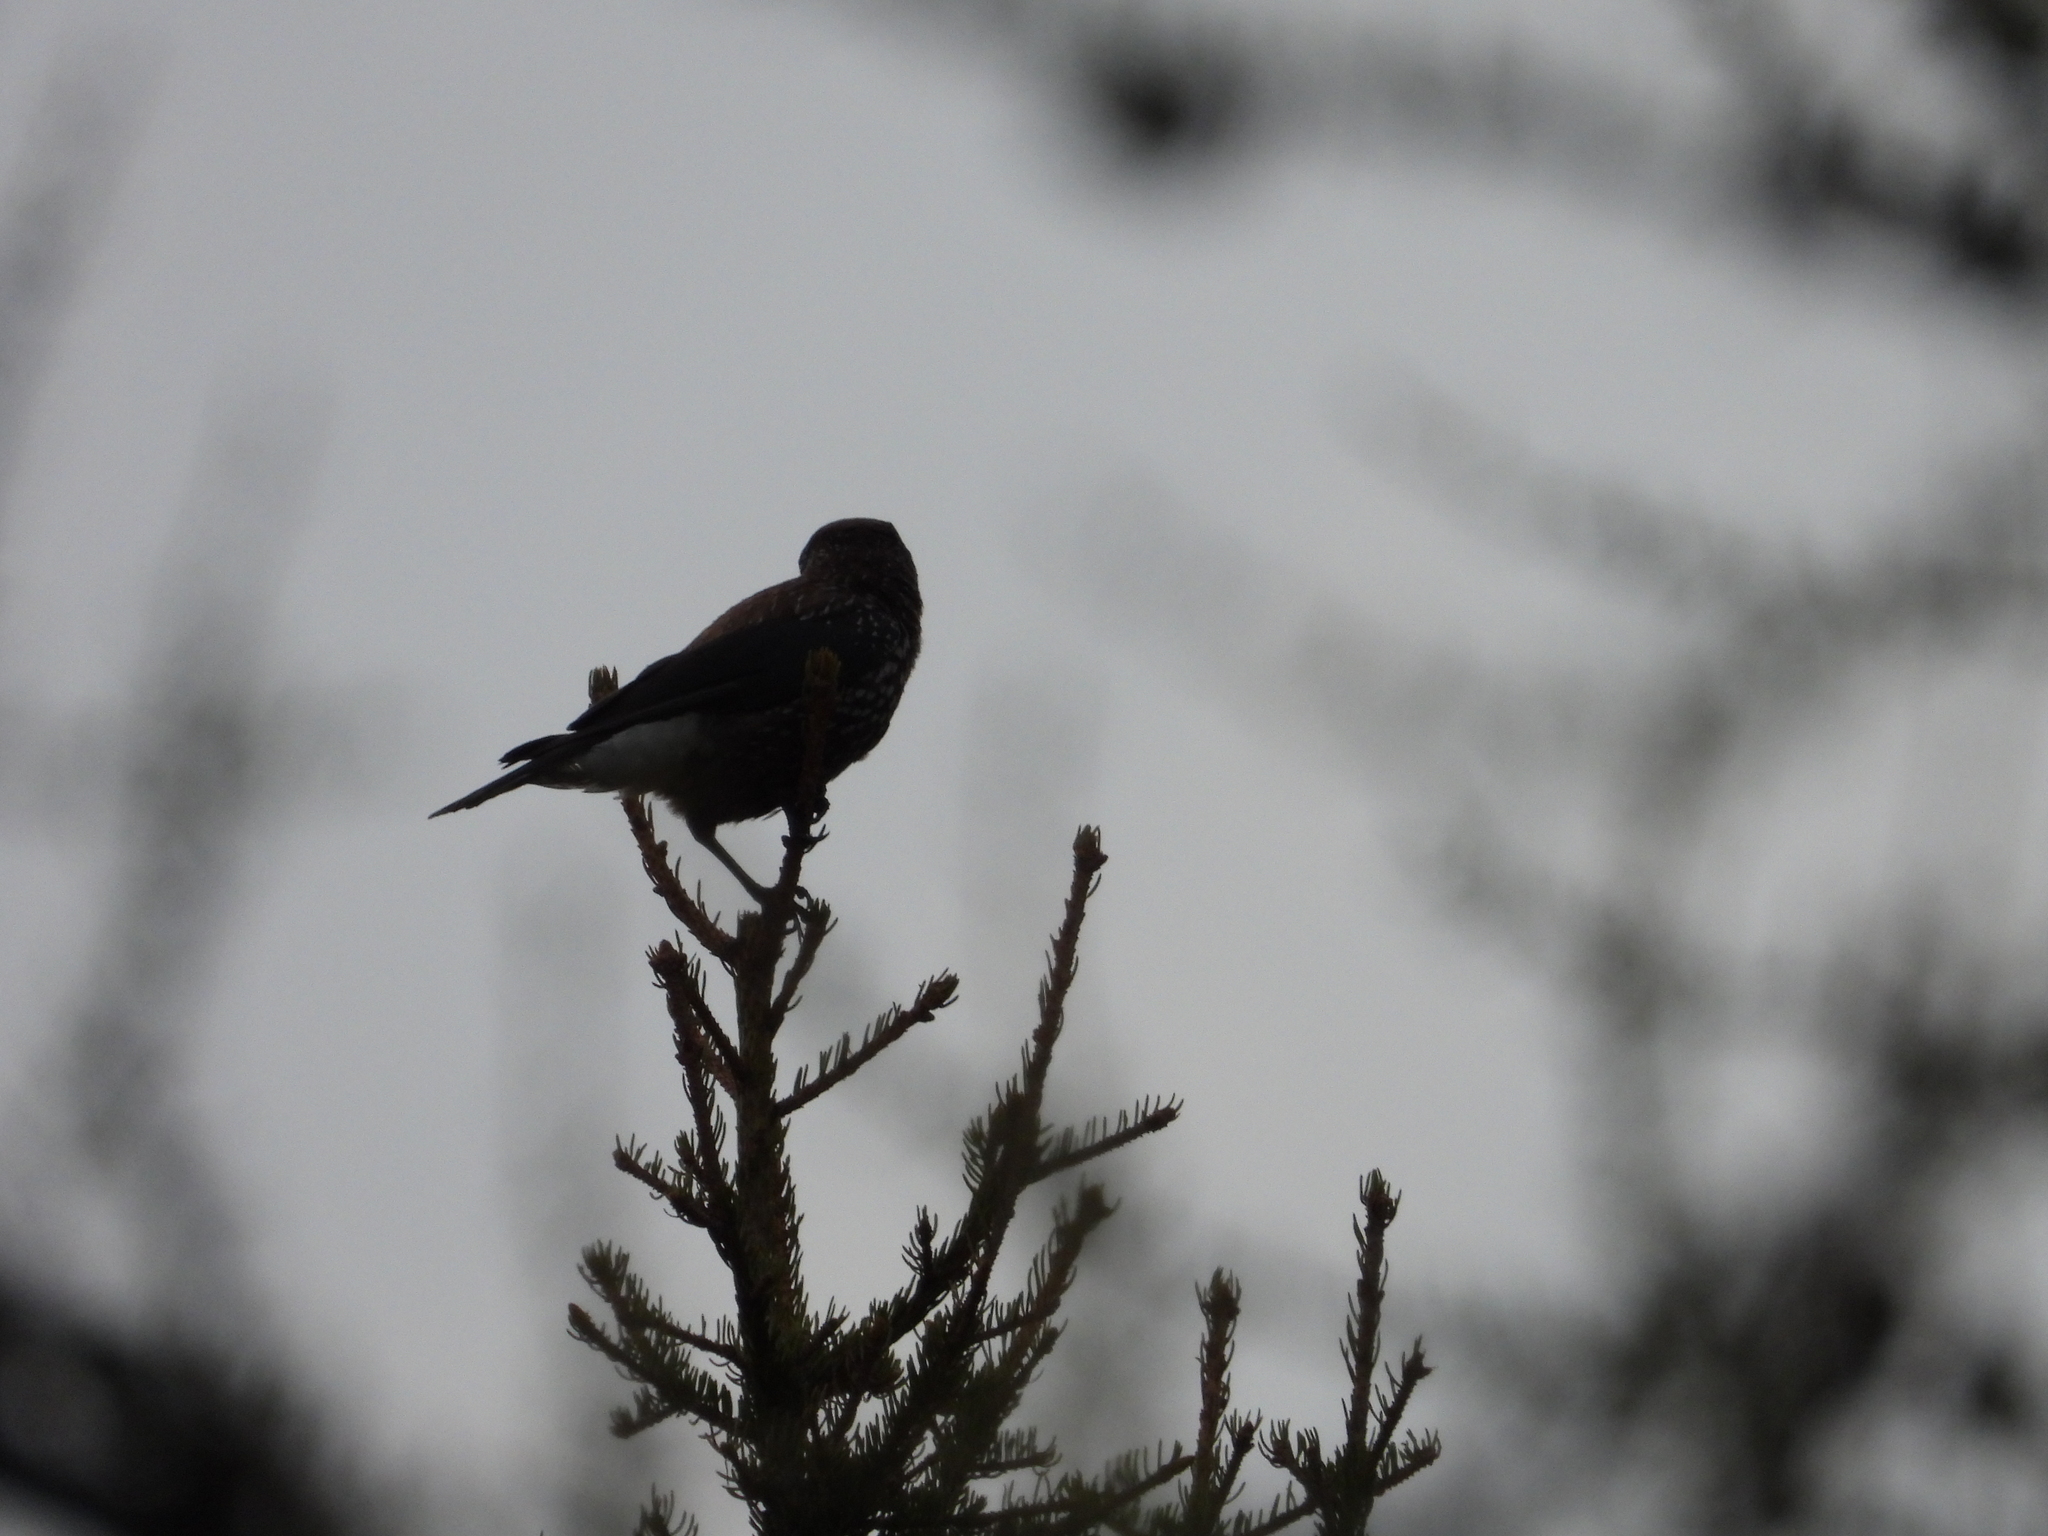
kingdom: Animalia
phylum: Chordata
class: Aves
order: Passeriformes
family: Corvidae
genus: Nucifraga
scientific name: Nucifraga caryocatactes
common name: Spotted nutcracker
